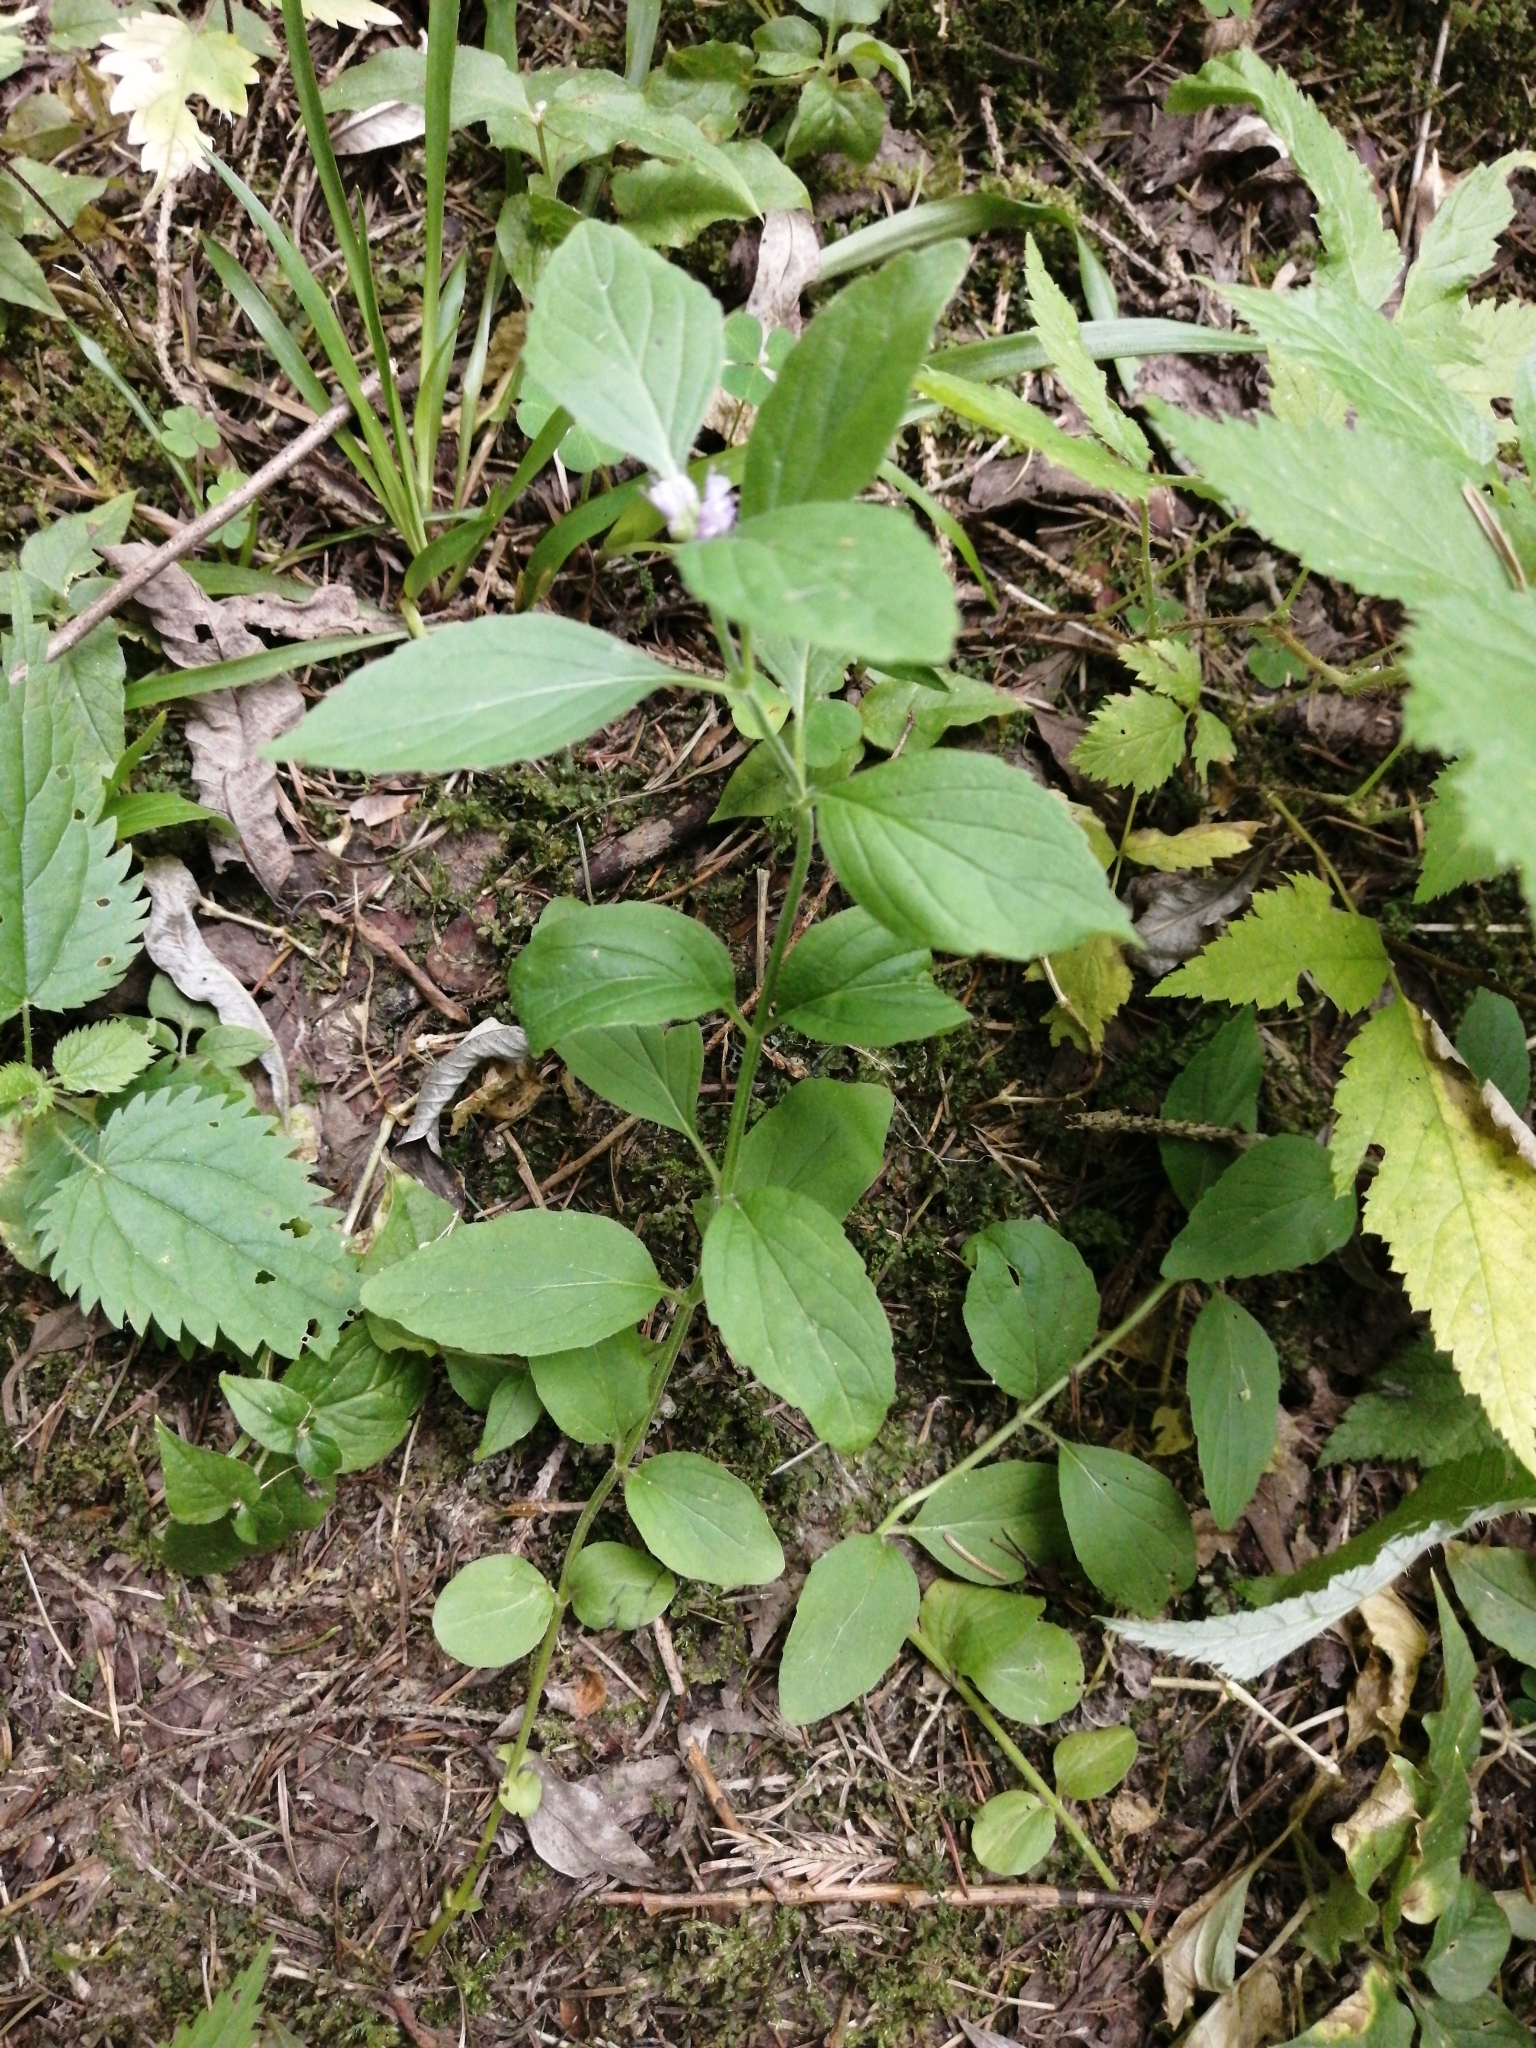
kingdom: Plantae
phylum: Tracheophyta
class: Magnoliopsida
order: Lamiales
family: Lamiaceae
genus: Mentha
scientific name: Mentha arvensis
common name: Corn mint
